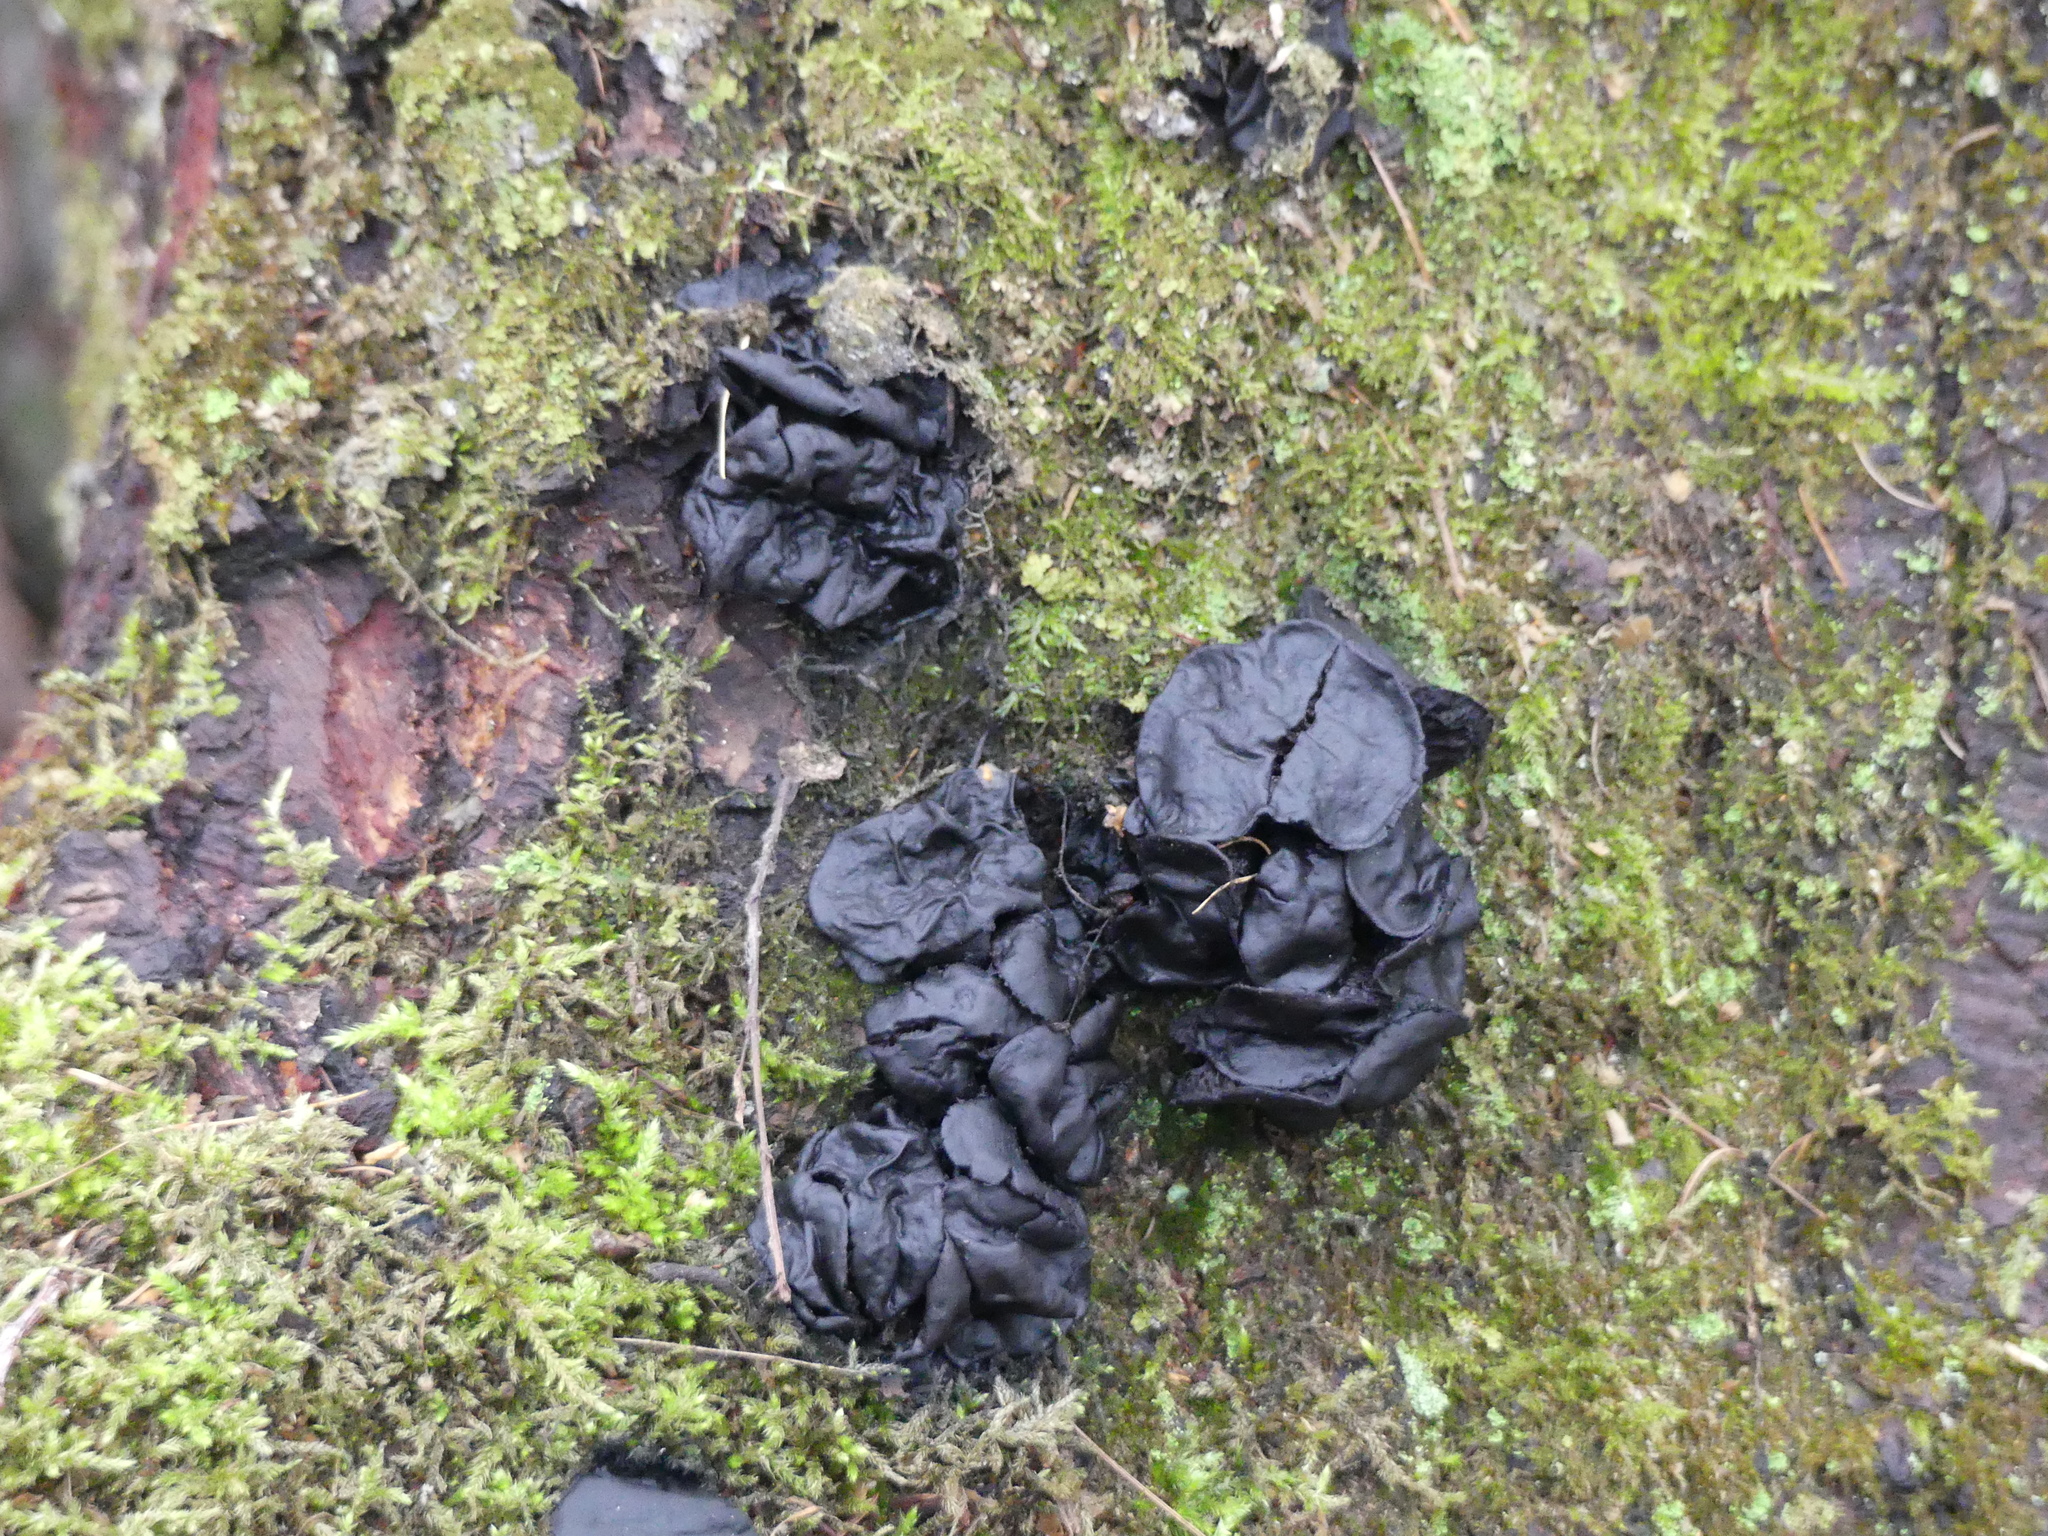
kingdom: Fungi
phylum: Ascomycota
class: Leotiomycetes
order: Phacidiales
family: Phacidiaceae
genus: Bulgaria
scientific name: Bulgaria inquinans
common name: Black bulgar
